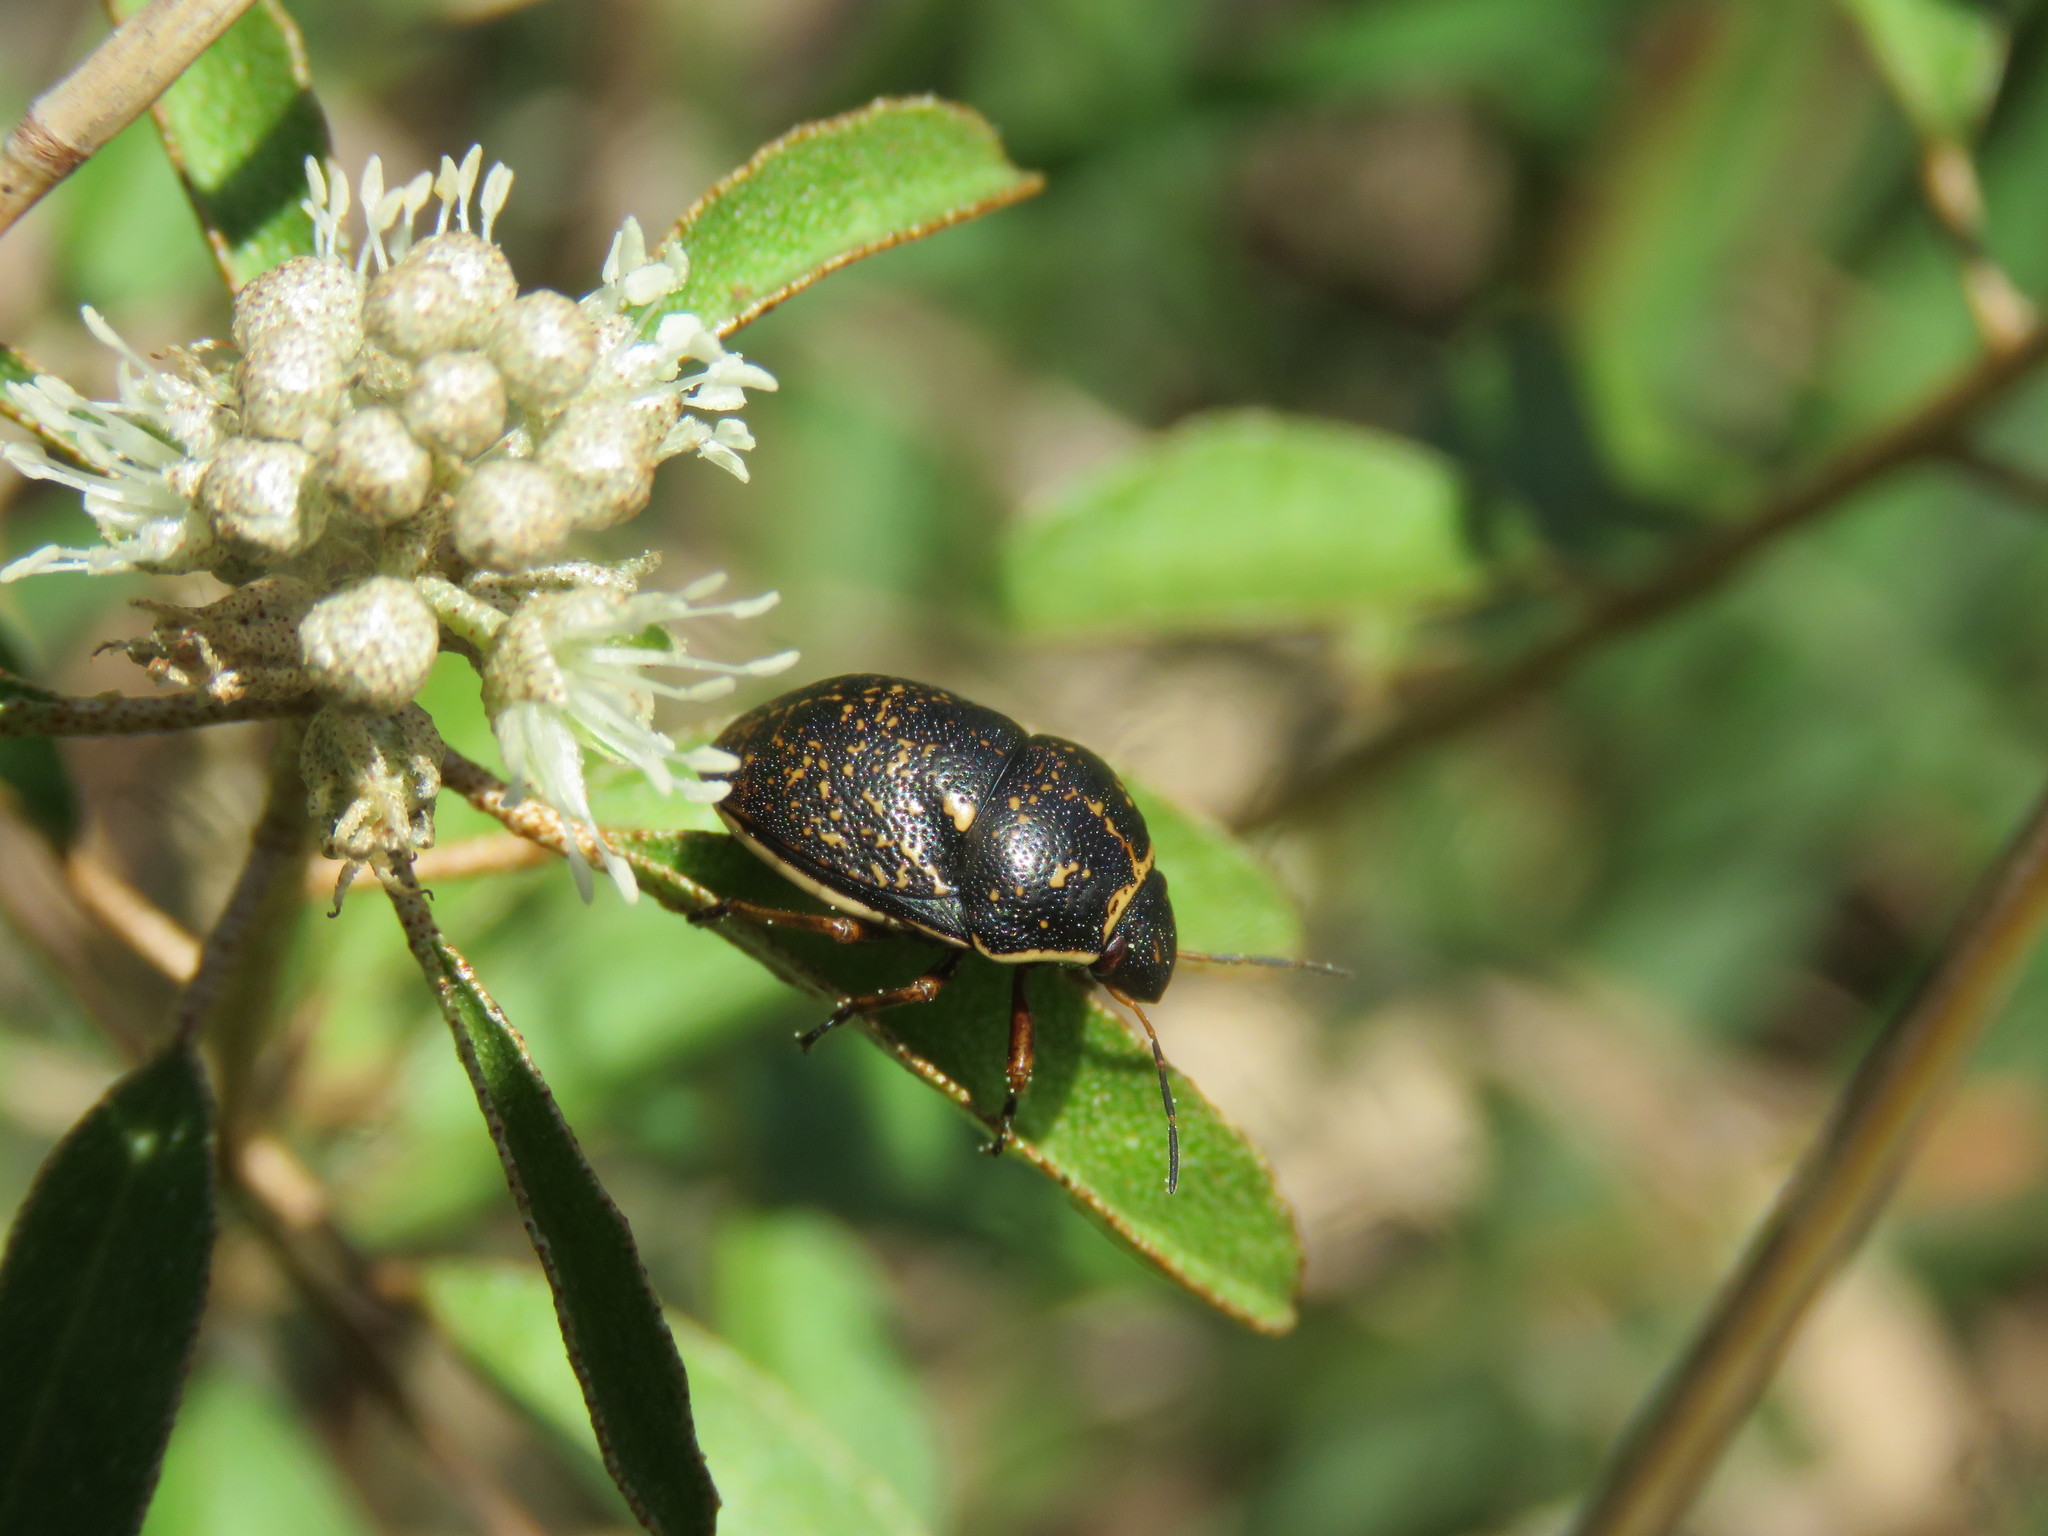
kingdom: Animalia
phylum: Arthropoda
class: Insecta
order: Hemiptera
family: Scutelleridae
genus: Orsilochides
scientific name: Orsilochides guttata
